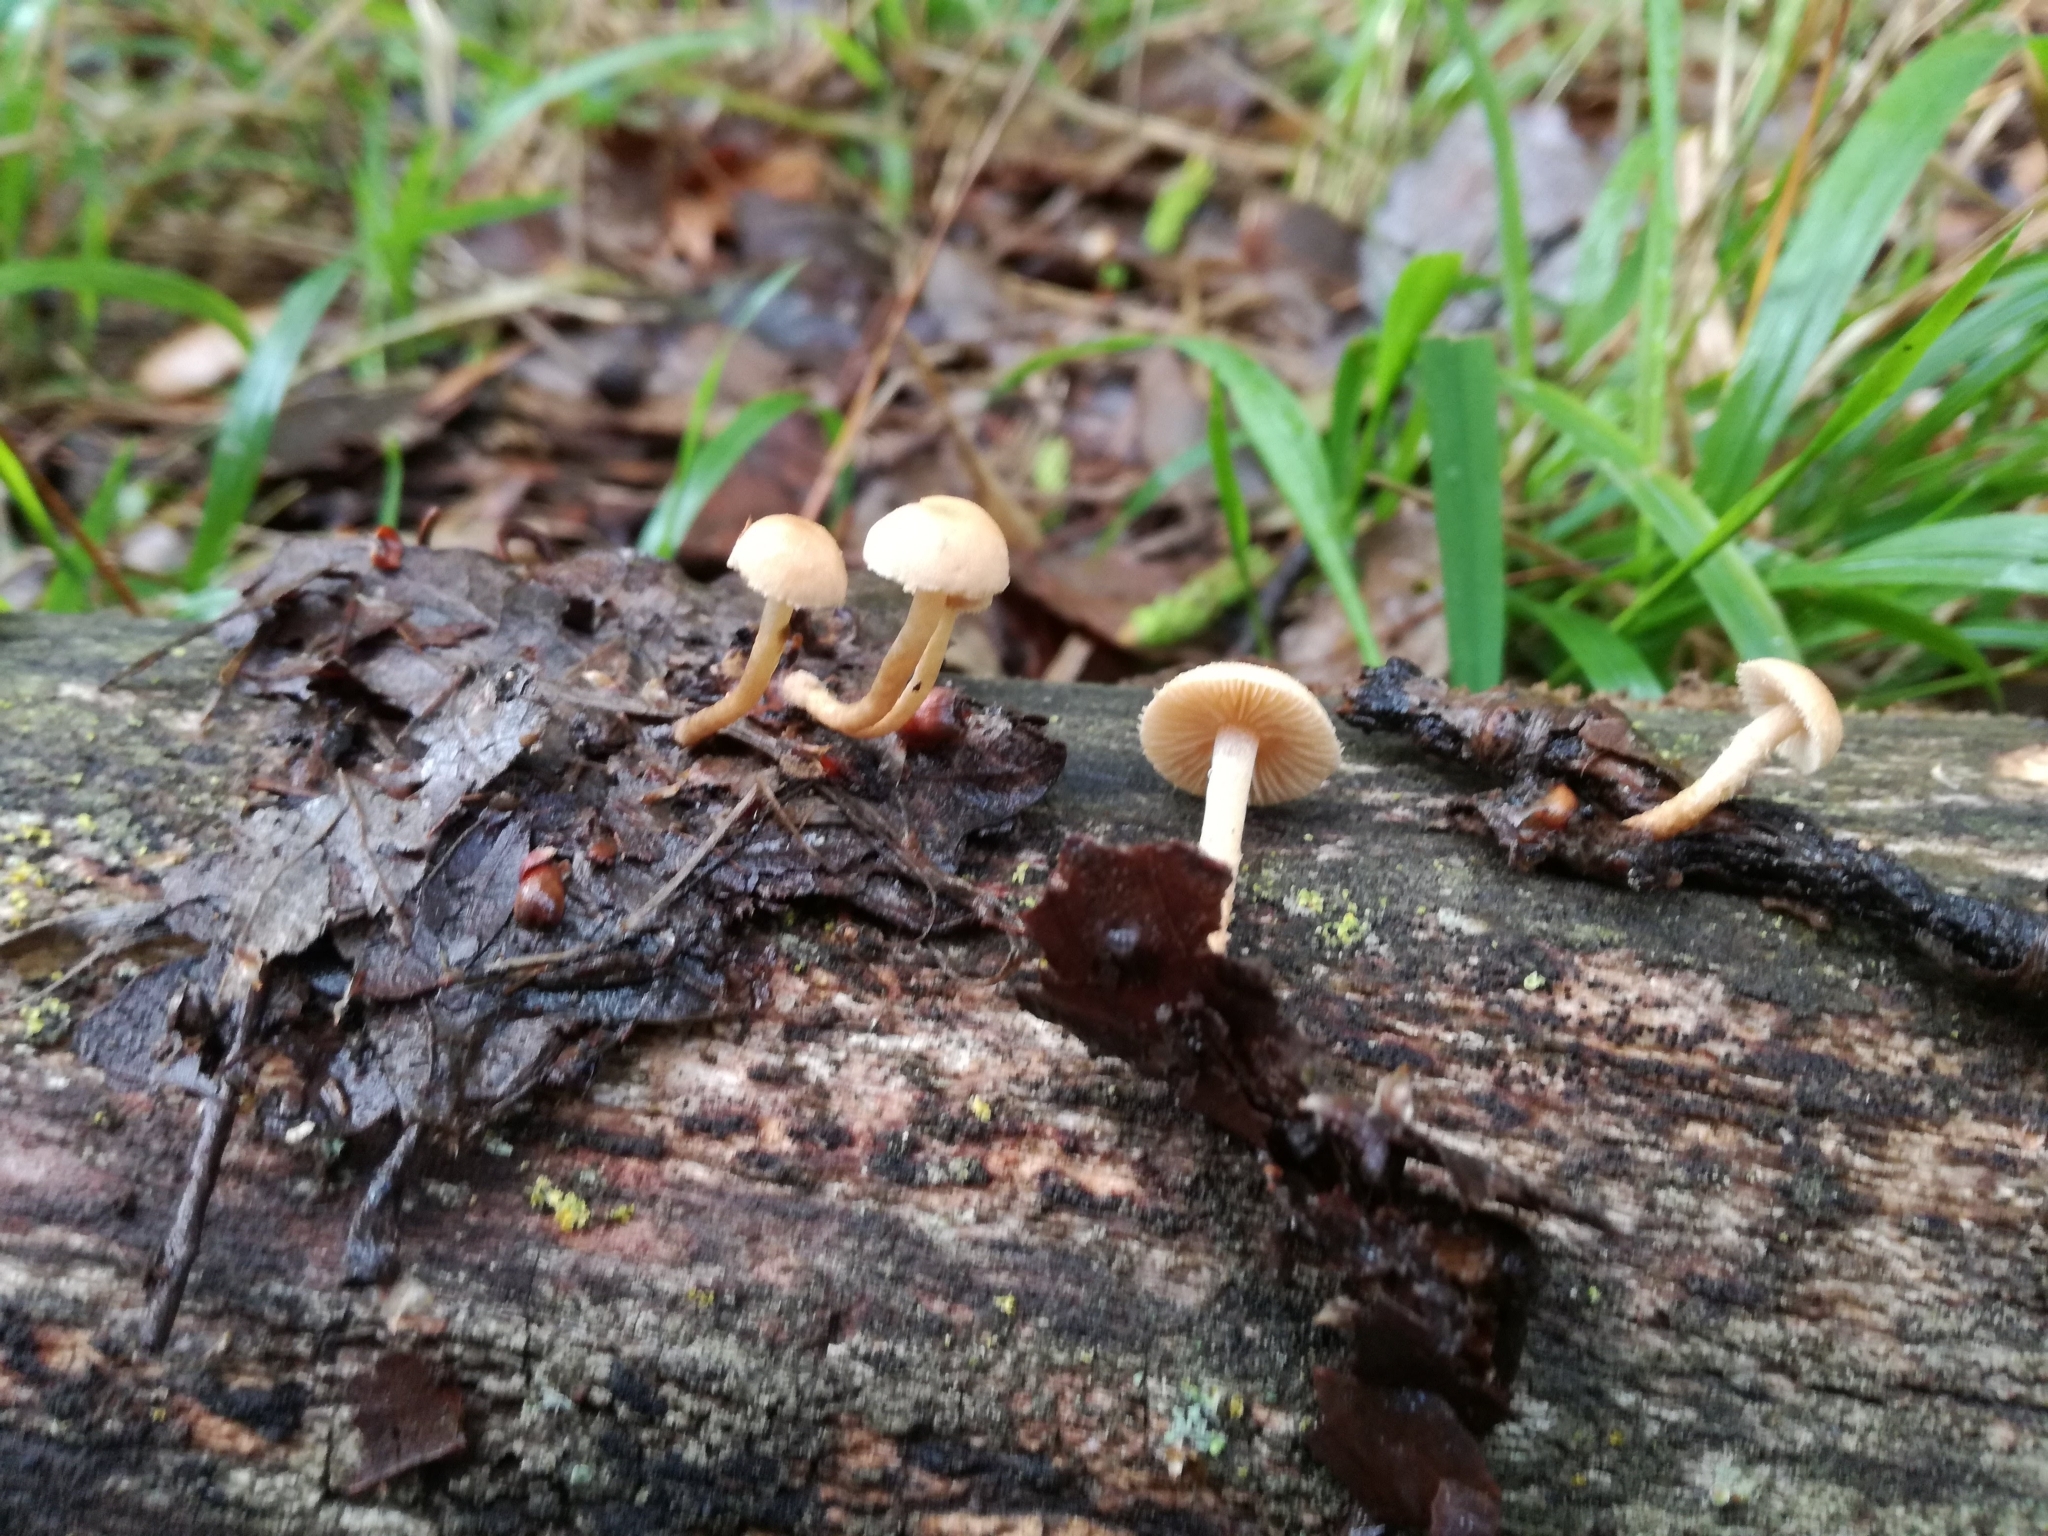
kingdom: Fungi
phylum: Basidiomycota
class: Agaricomycetes
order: Agaricales
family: Tubariaceae
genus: Flammulaster
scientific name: Flammulaster carpophilus
